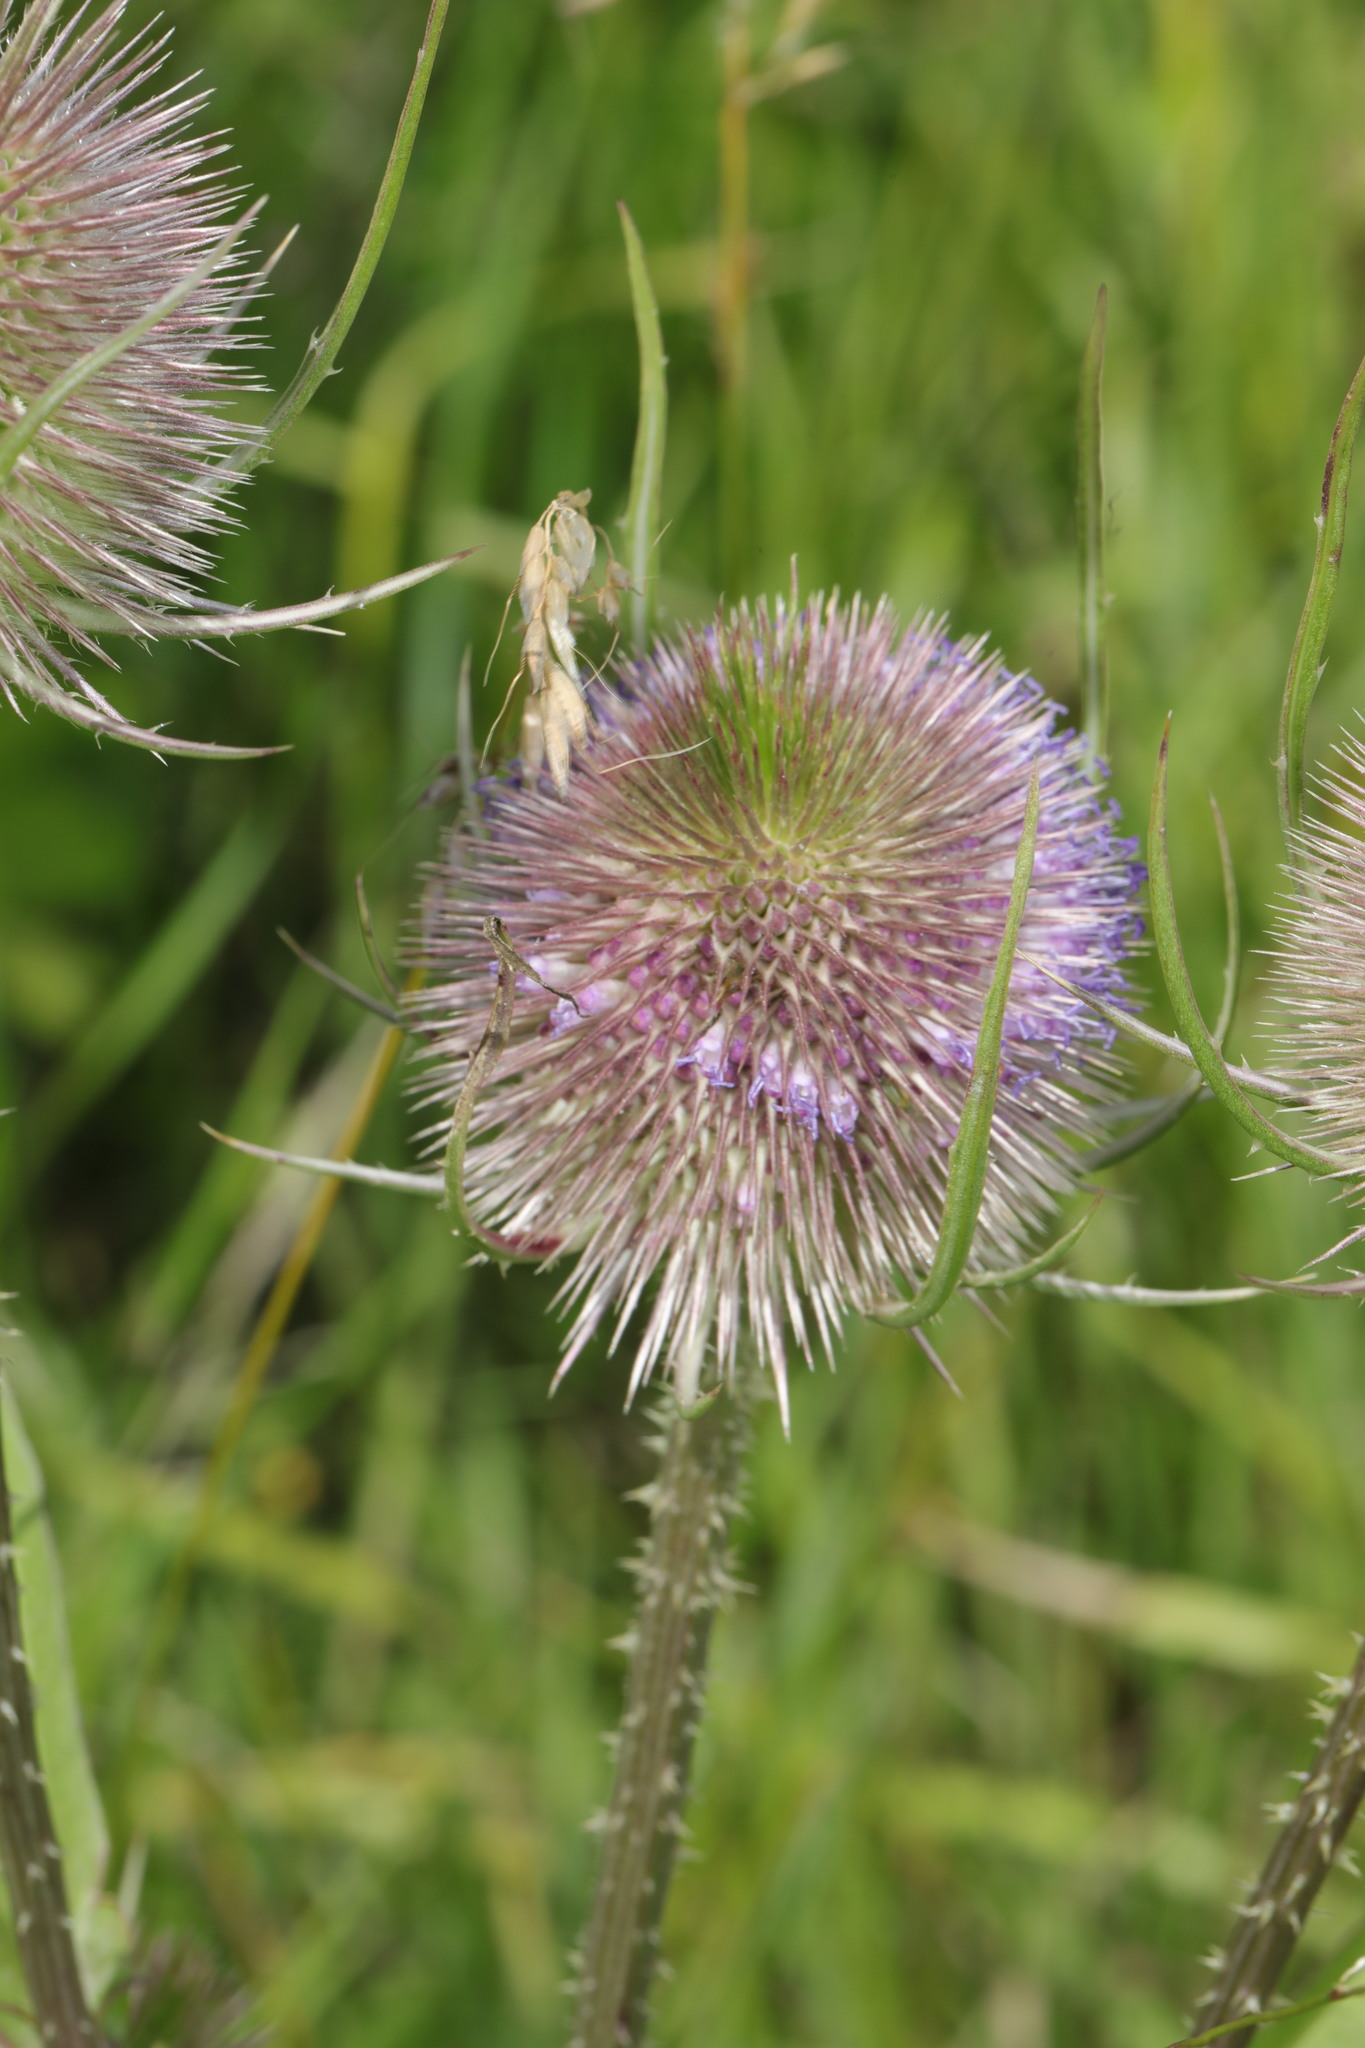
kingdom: Plantae
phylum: Tracheophyta
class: Magnoliopsida
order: Dipsacales
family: Caprifoliaceae
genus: Dipsacus
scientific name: Dipsacus fullonum
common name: Teasel
